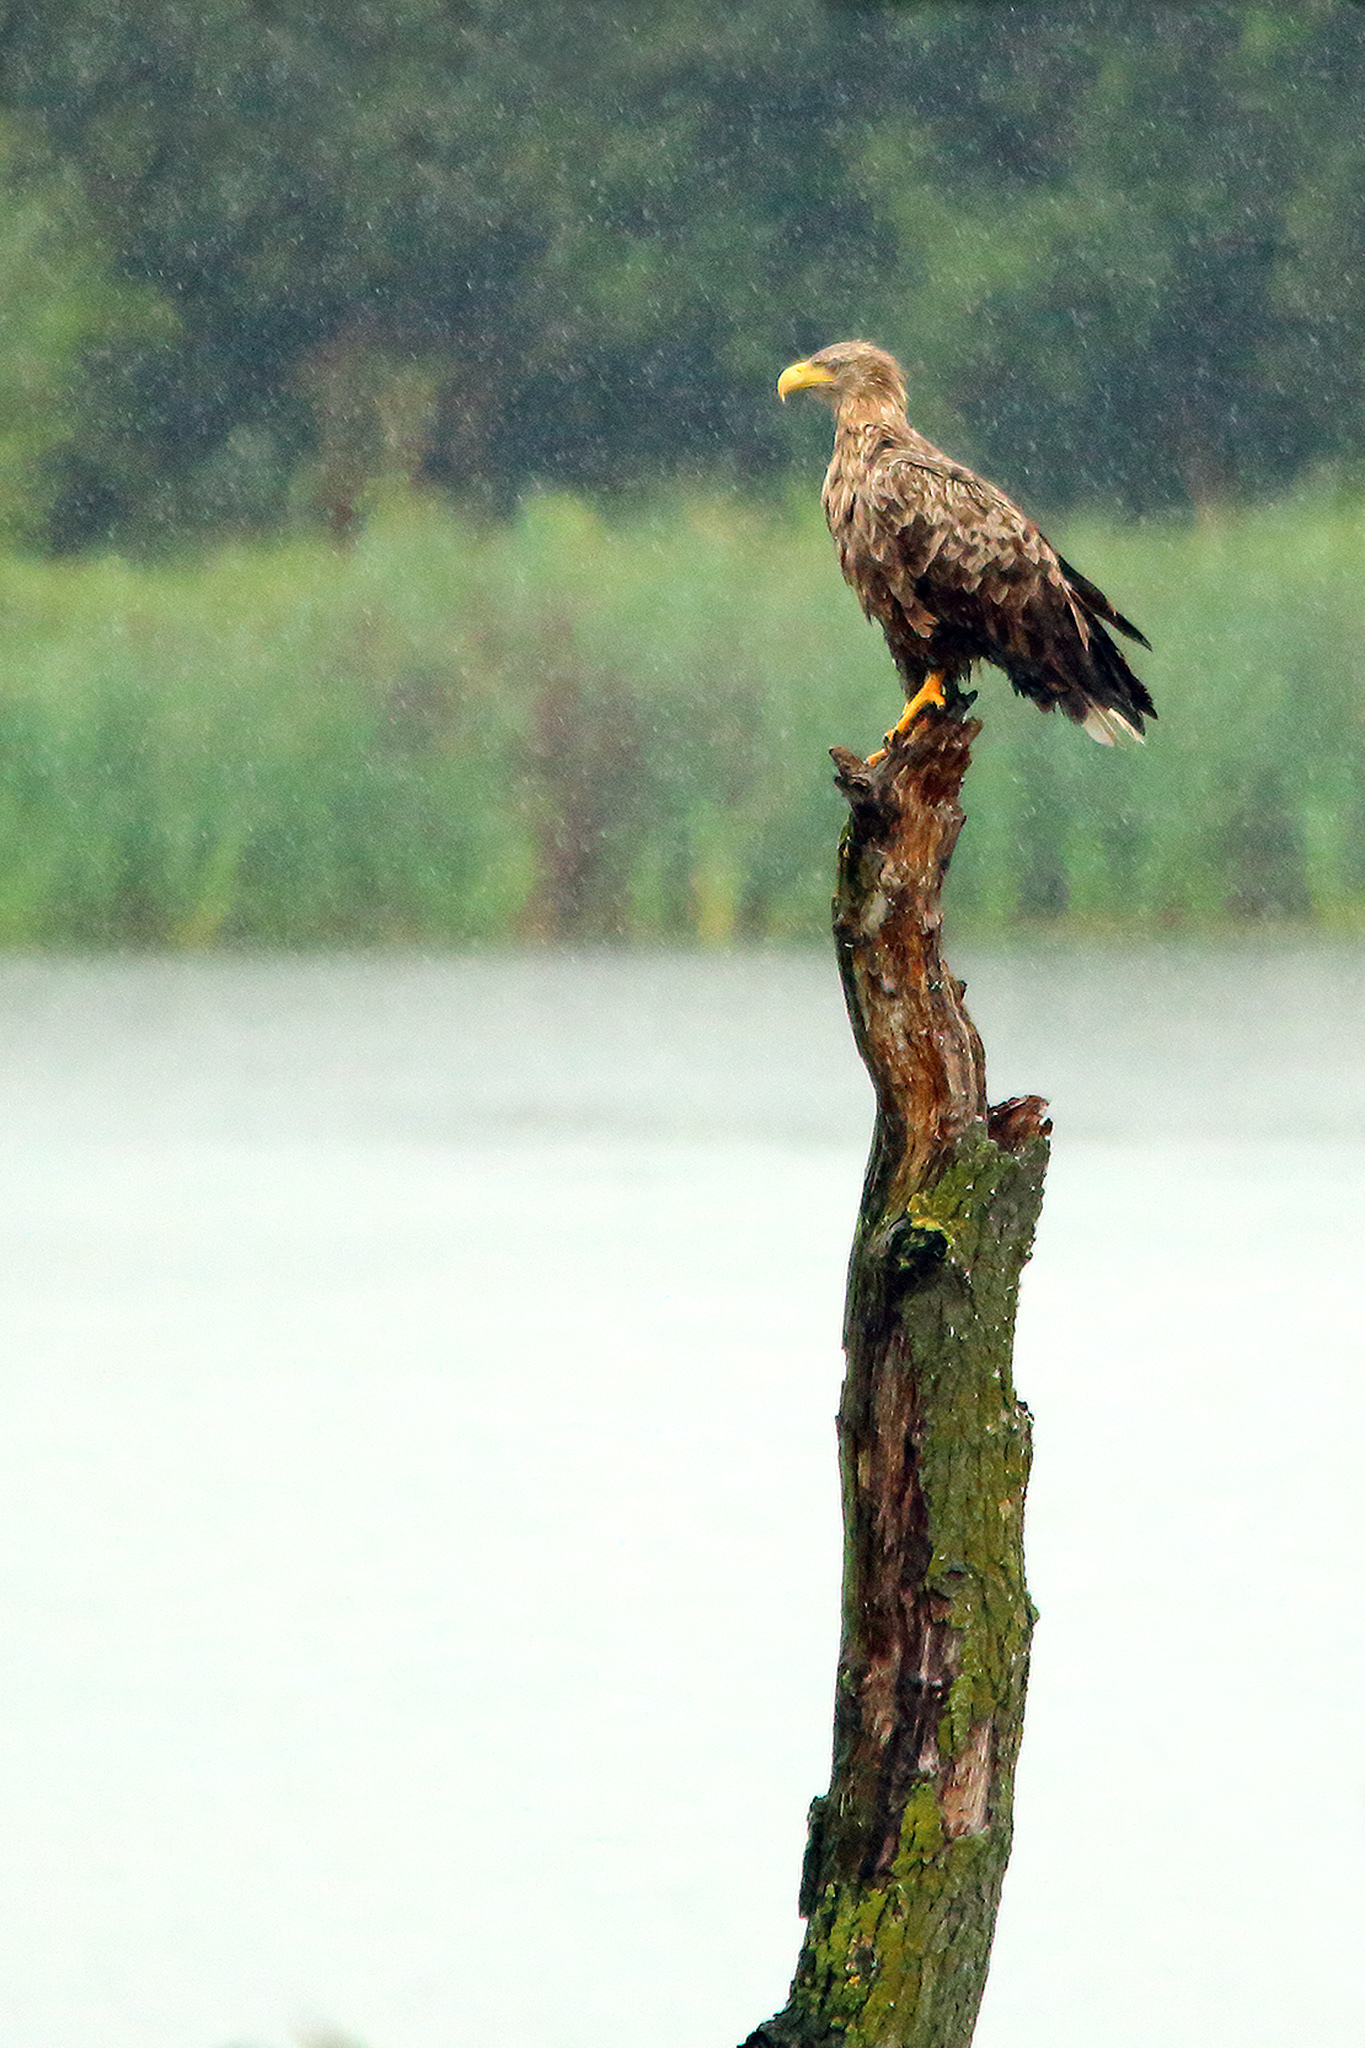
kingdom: Animalia
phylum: Chordata
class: Aves
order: Accipitriformes
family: Accipitridae
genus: Haliaeetus
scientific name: Haliaeetus albicilla
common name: White-tailed eagle
